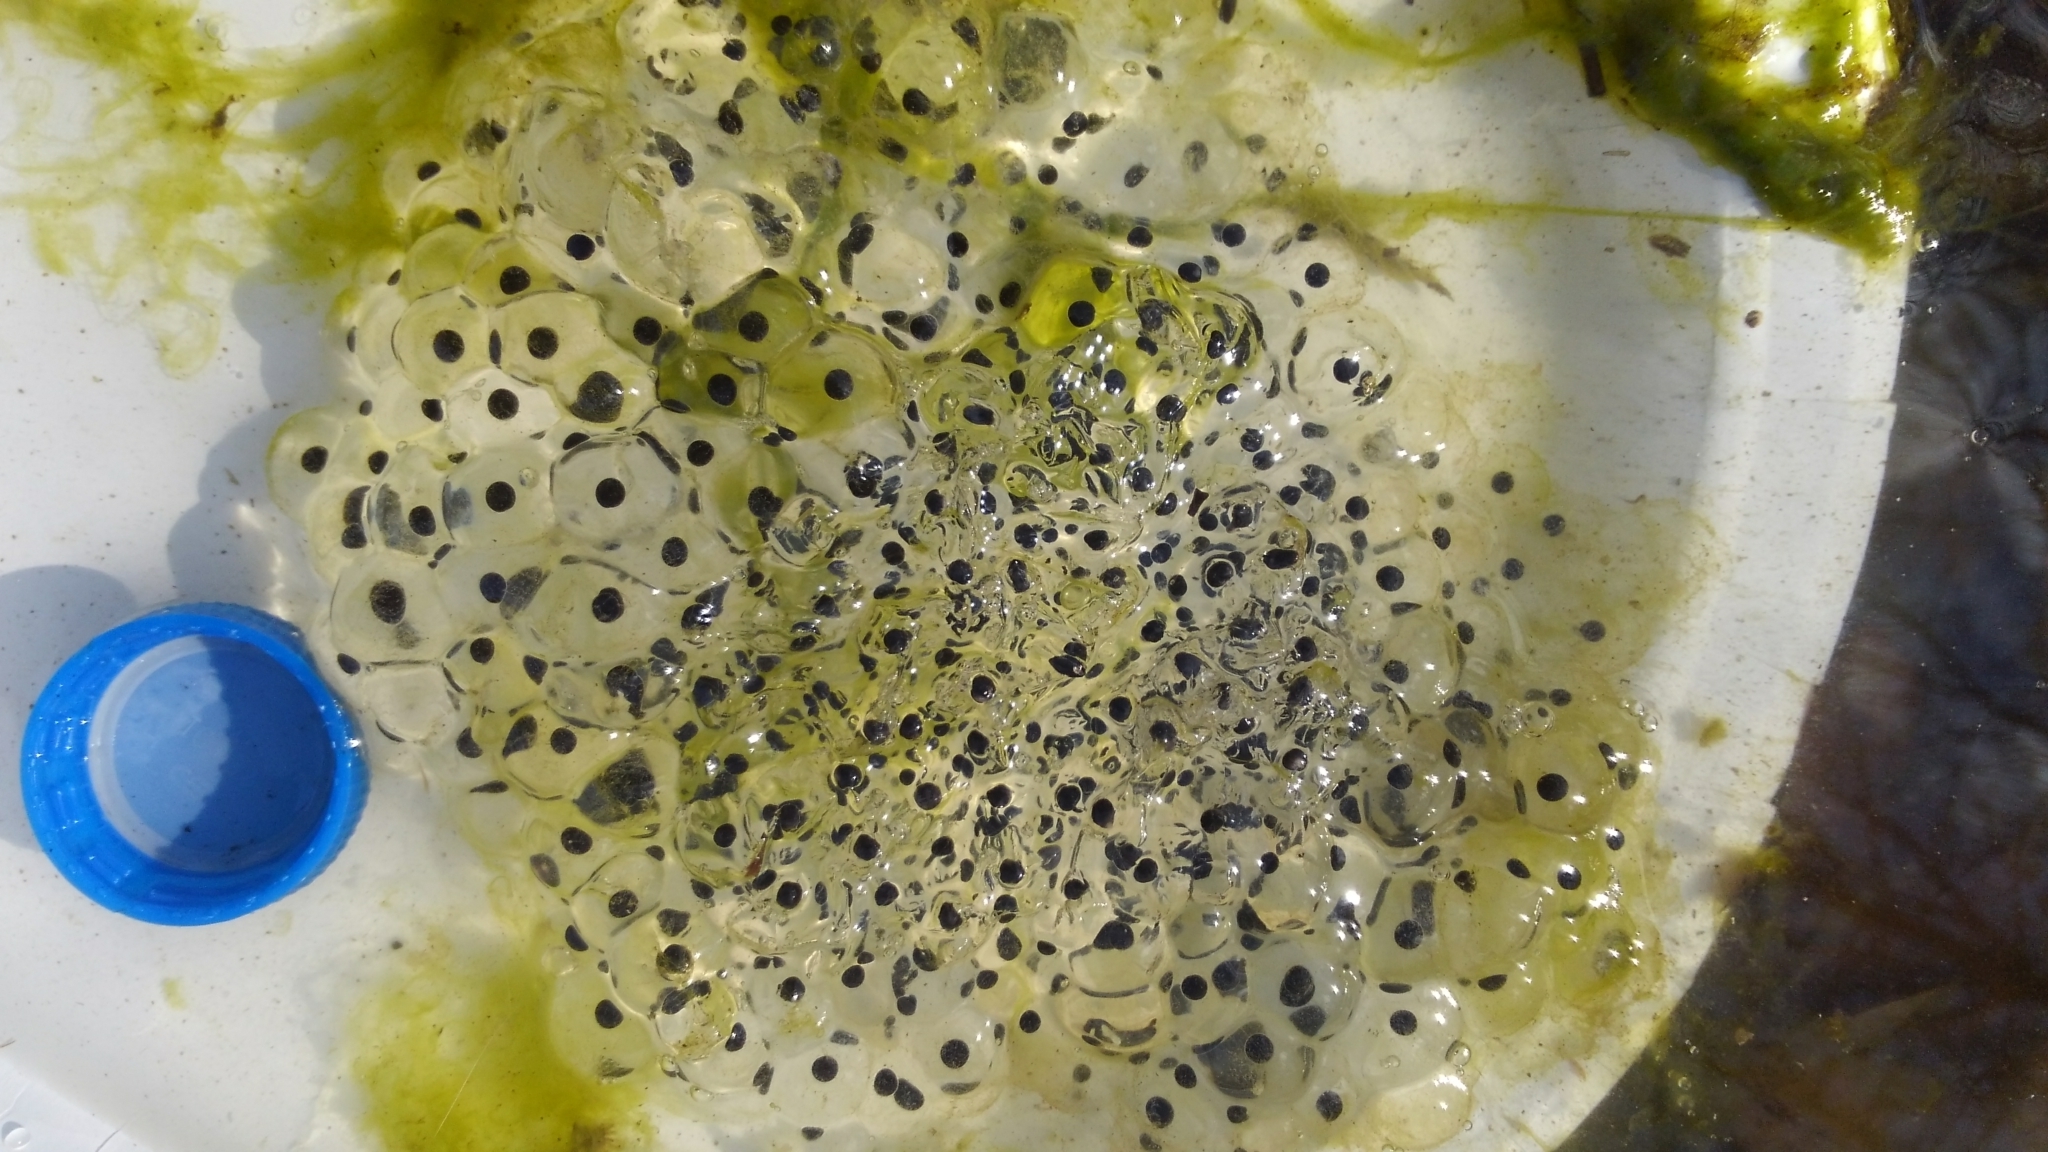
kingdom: Animalia
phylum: Chordata
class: Amphibia
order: Anura
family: Ranidae
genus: Lithobates
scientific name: Lithobates sylvaticus
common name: Wood frog
